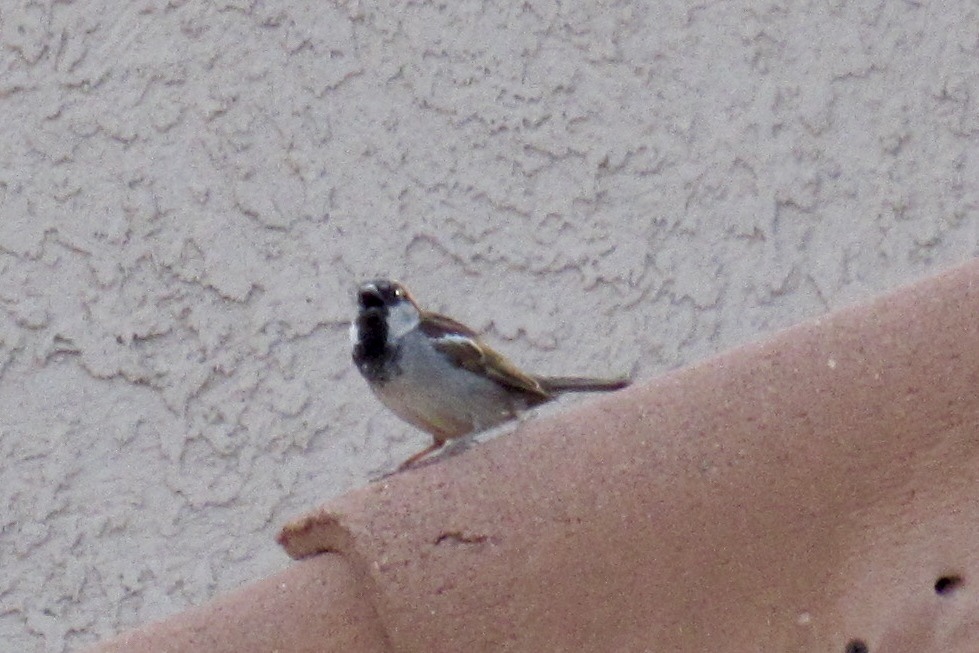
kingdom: Animalia
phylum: Chordata
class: Aves
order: Passeriformes
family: Passeridae
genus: Passer
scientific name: Passer domesticus
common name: House sparrow
